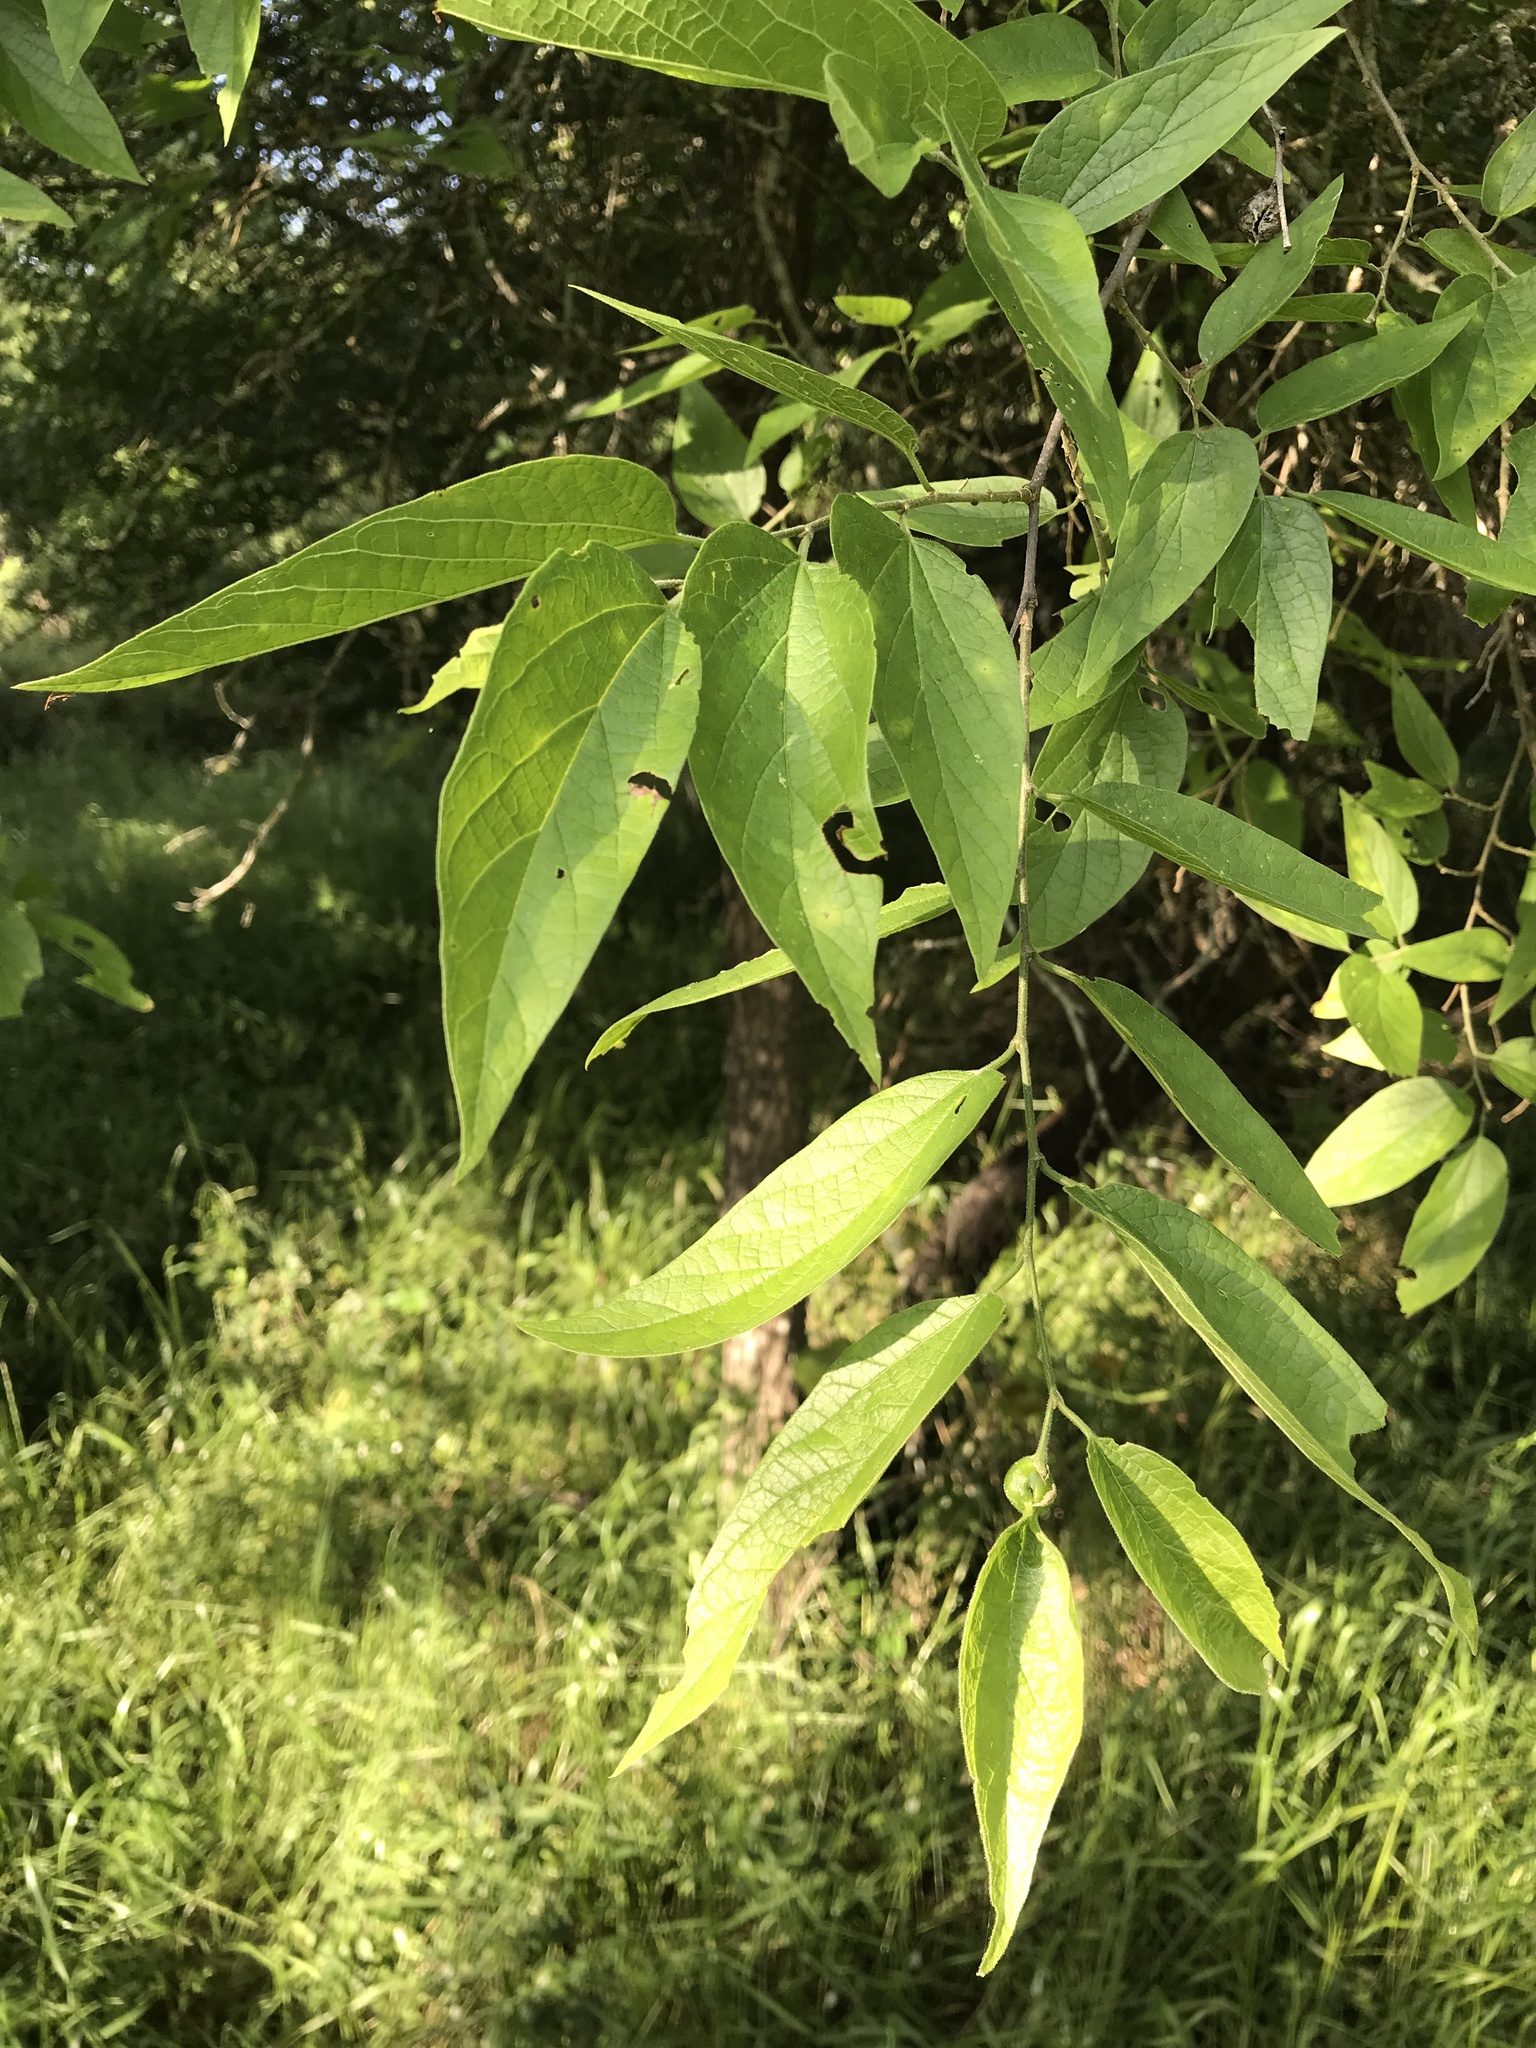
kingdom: Plantae
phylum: Tracheophyta
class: Magnoliopsida
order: Rosales
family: Cannabaceae
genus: Celtis
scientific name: Celtis laevigata
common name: Sugarberry
